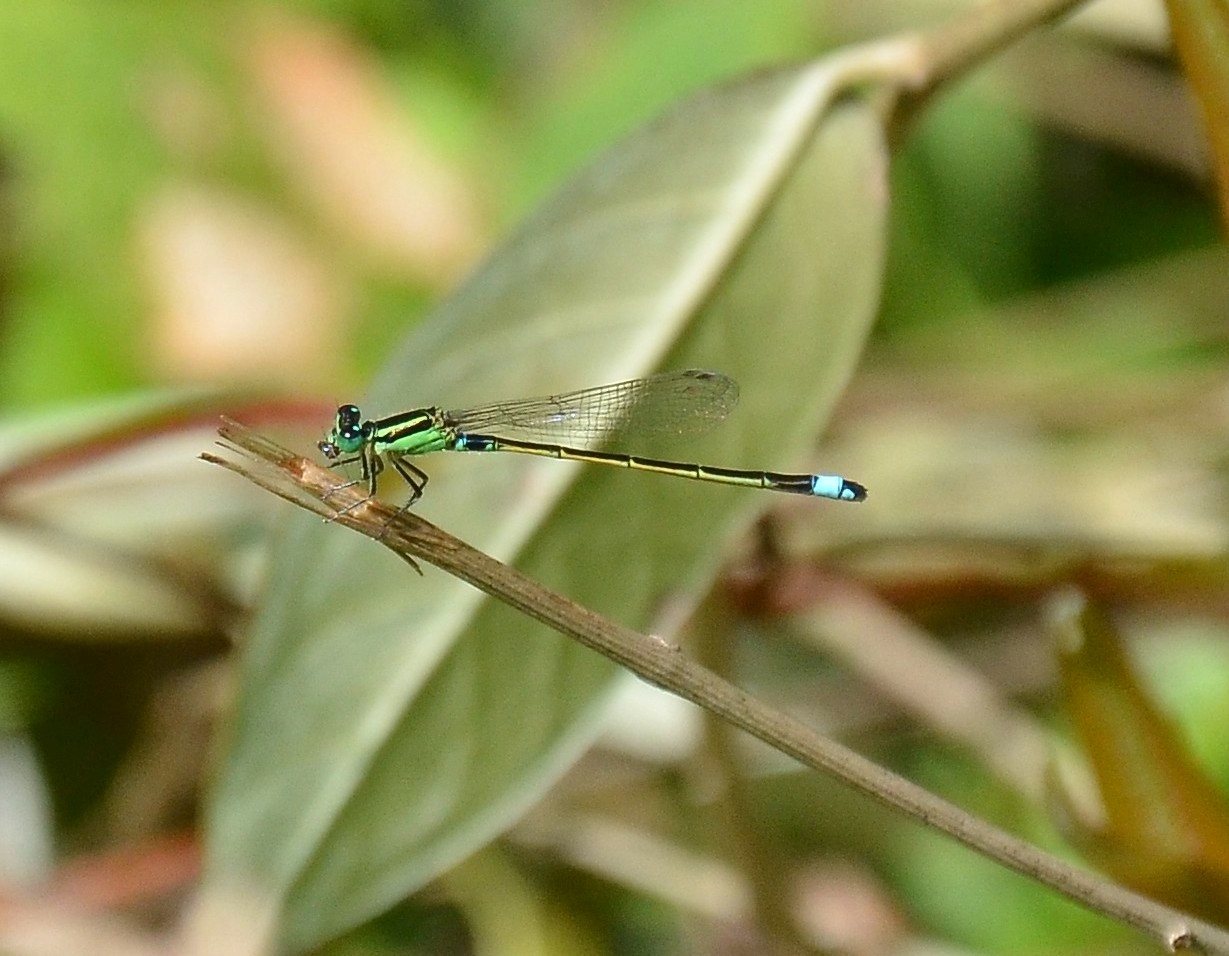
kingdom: Animalia
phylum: Arthropoda
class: Insecta
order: Odonata
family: Coenagrionidae
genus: Ischnura
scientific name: Ischnura senegalensis
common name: Tropical bluetail
